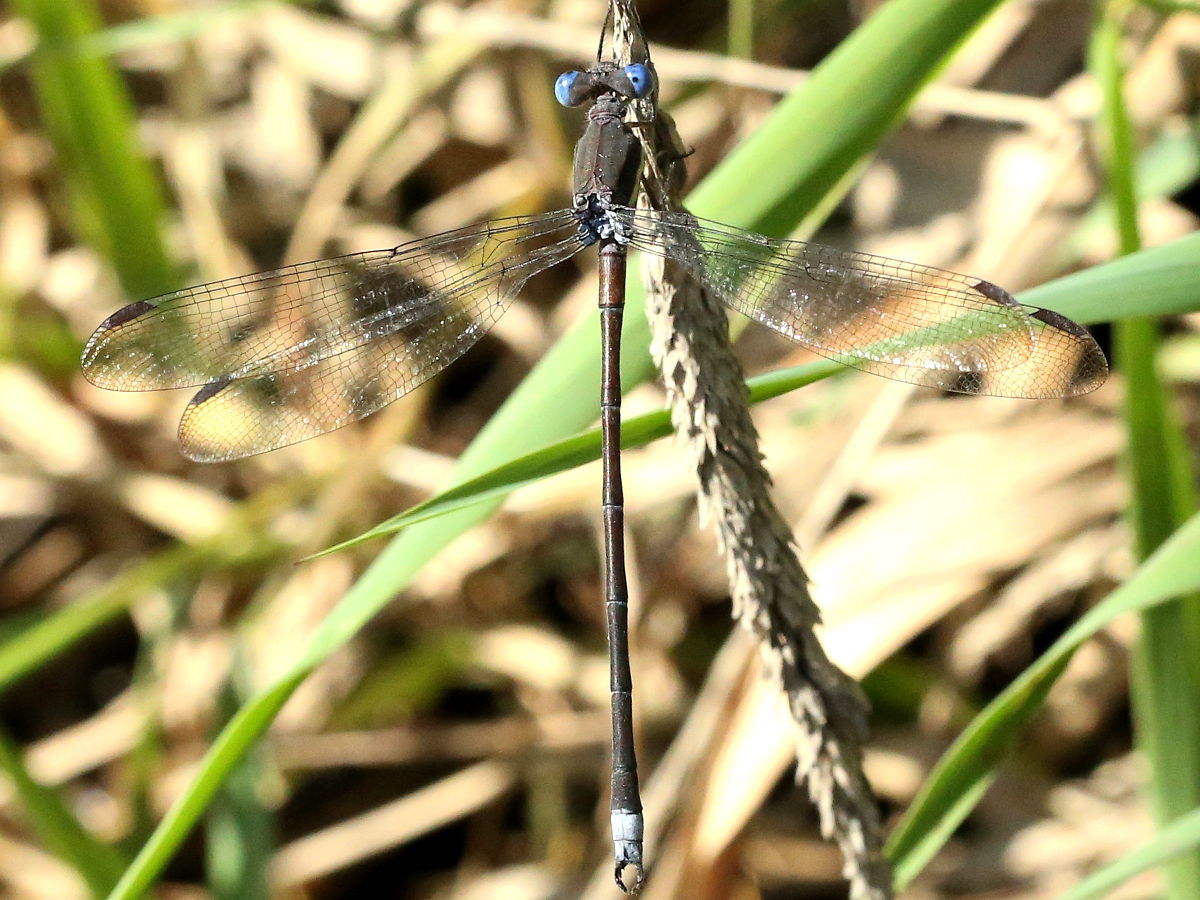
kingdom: Animalia
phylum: Arthropoda
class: Insecta
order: Odonata
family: Lestidae
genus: Archilestes
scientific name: Archilestes grandis
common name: Great spreadwing
